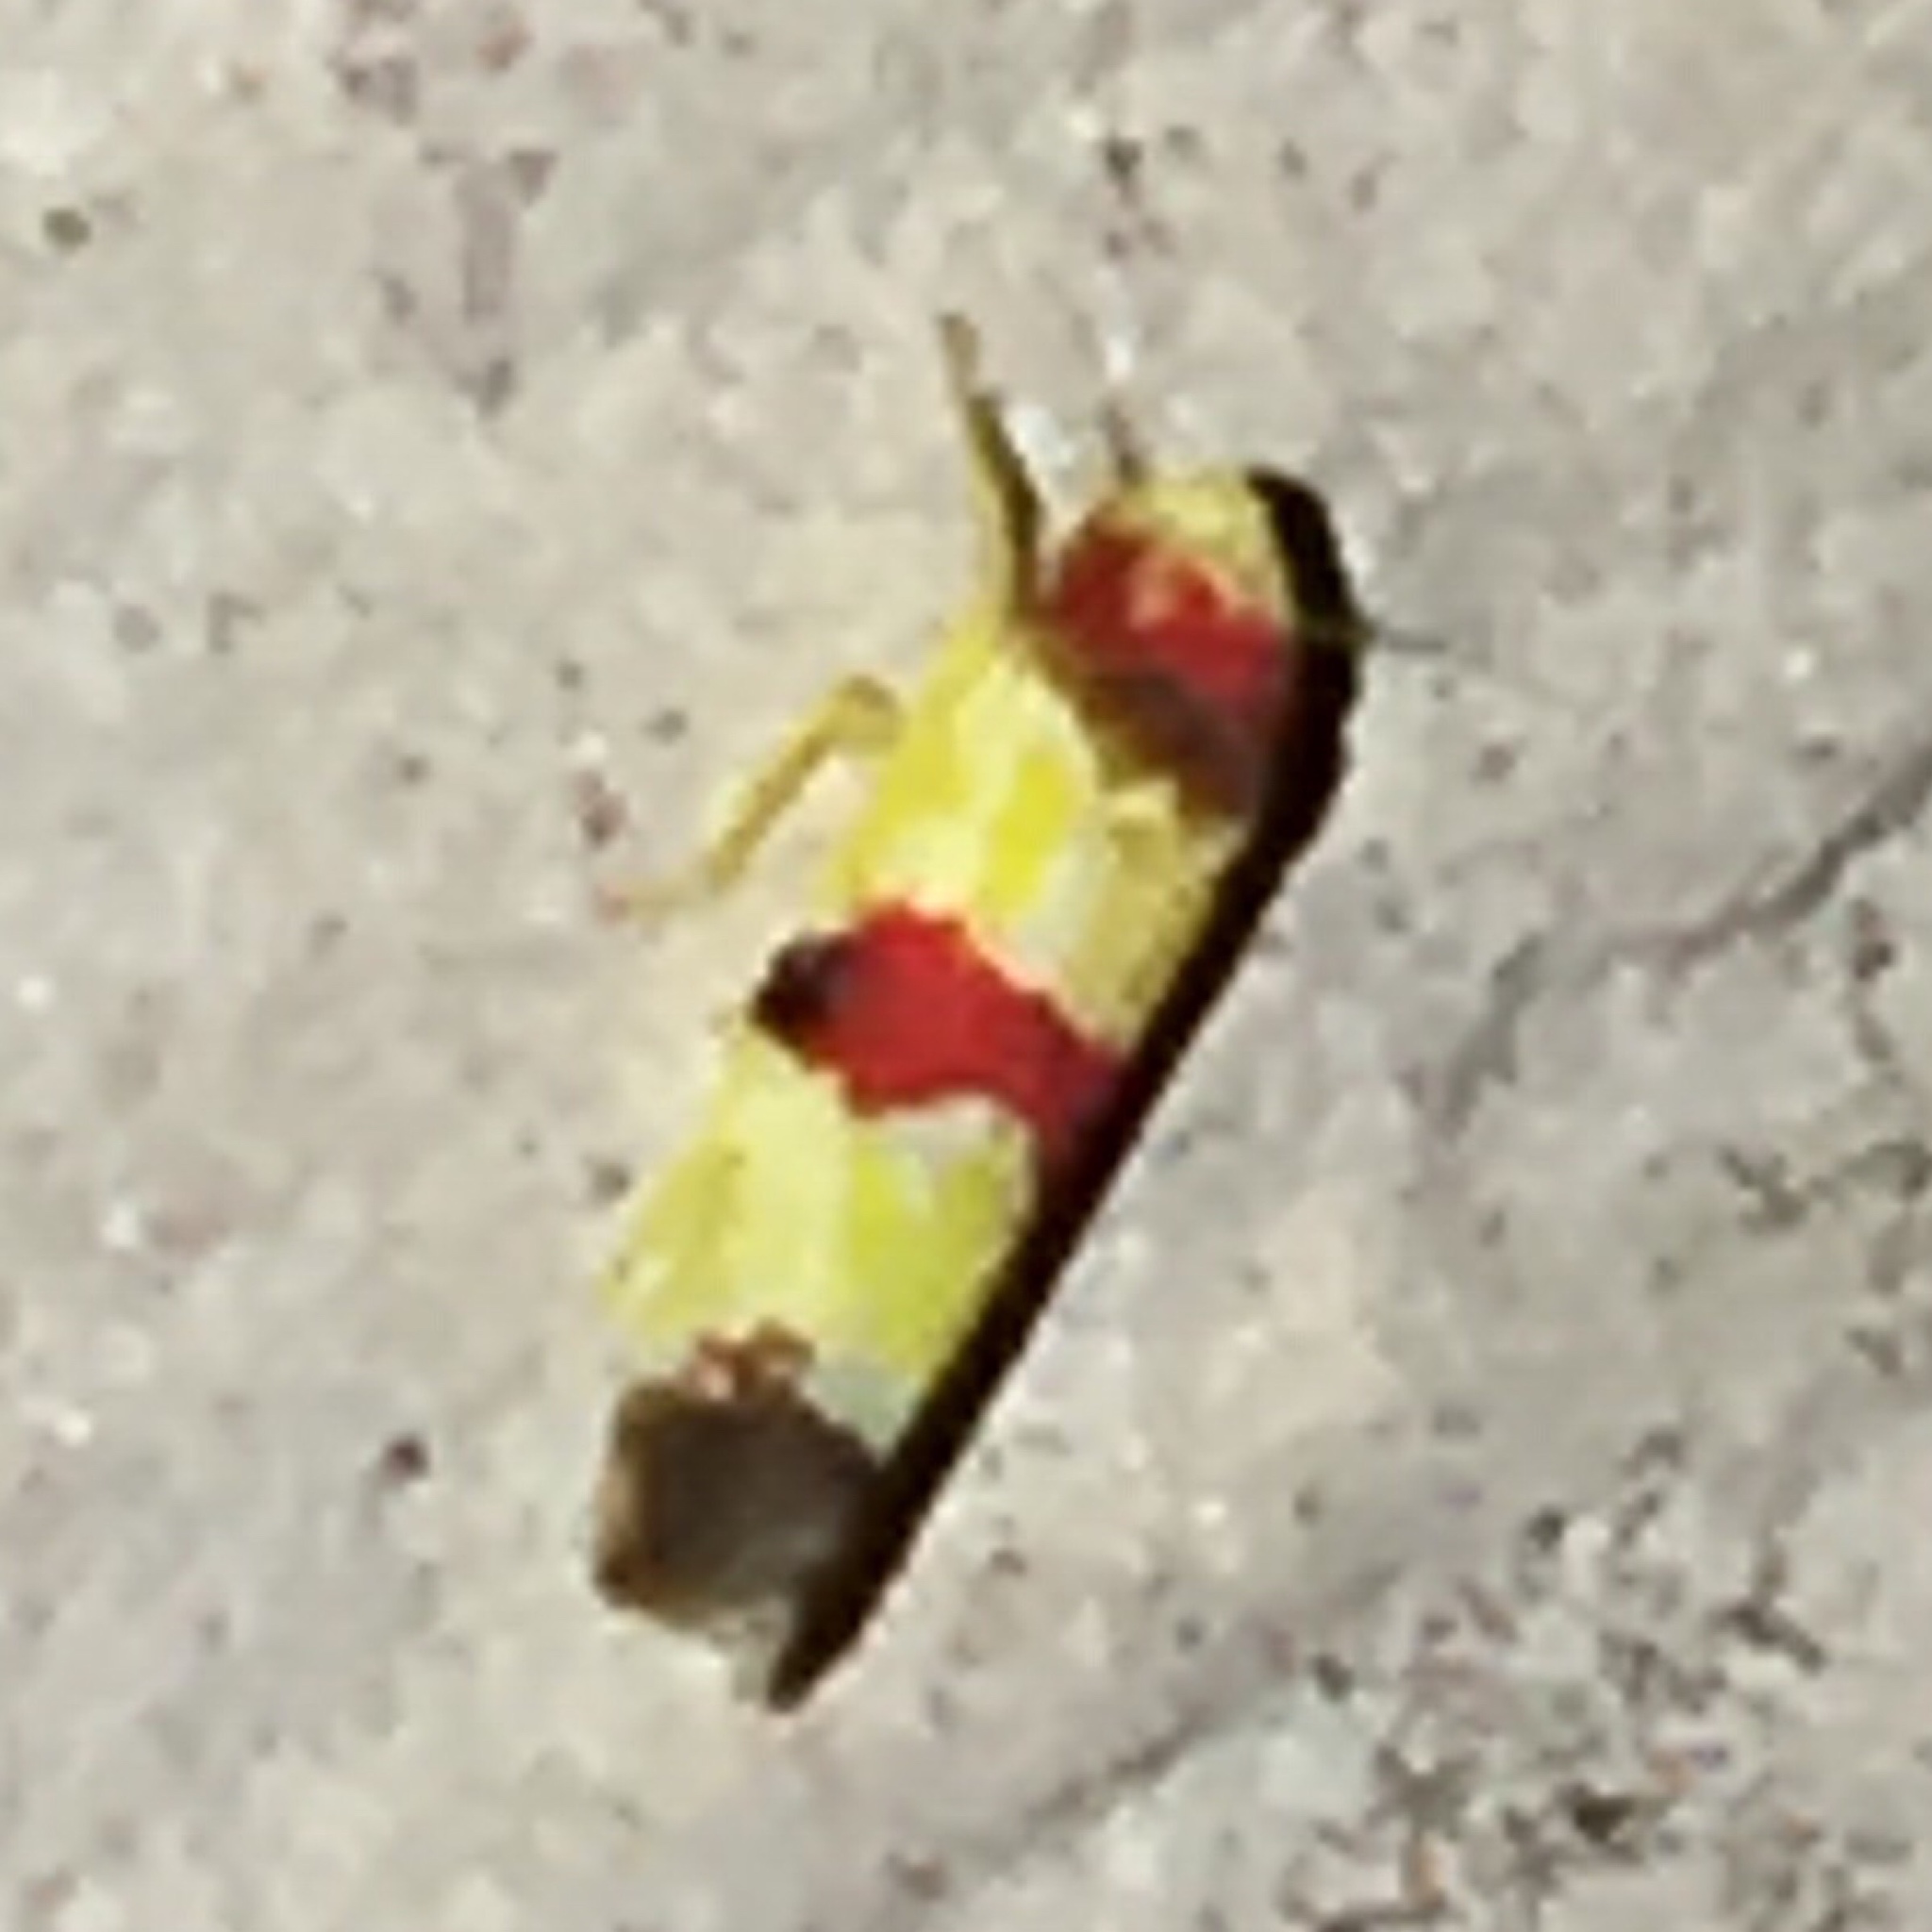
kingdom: Animalia
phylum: Arthropoda
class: Insecta
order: Hemiptera
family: Cicadellidae
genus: Erythroneura
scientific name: Erythroneura diva
